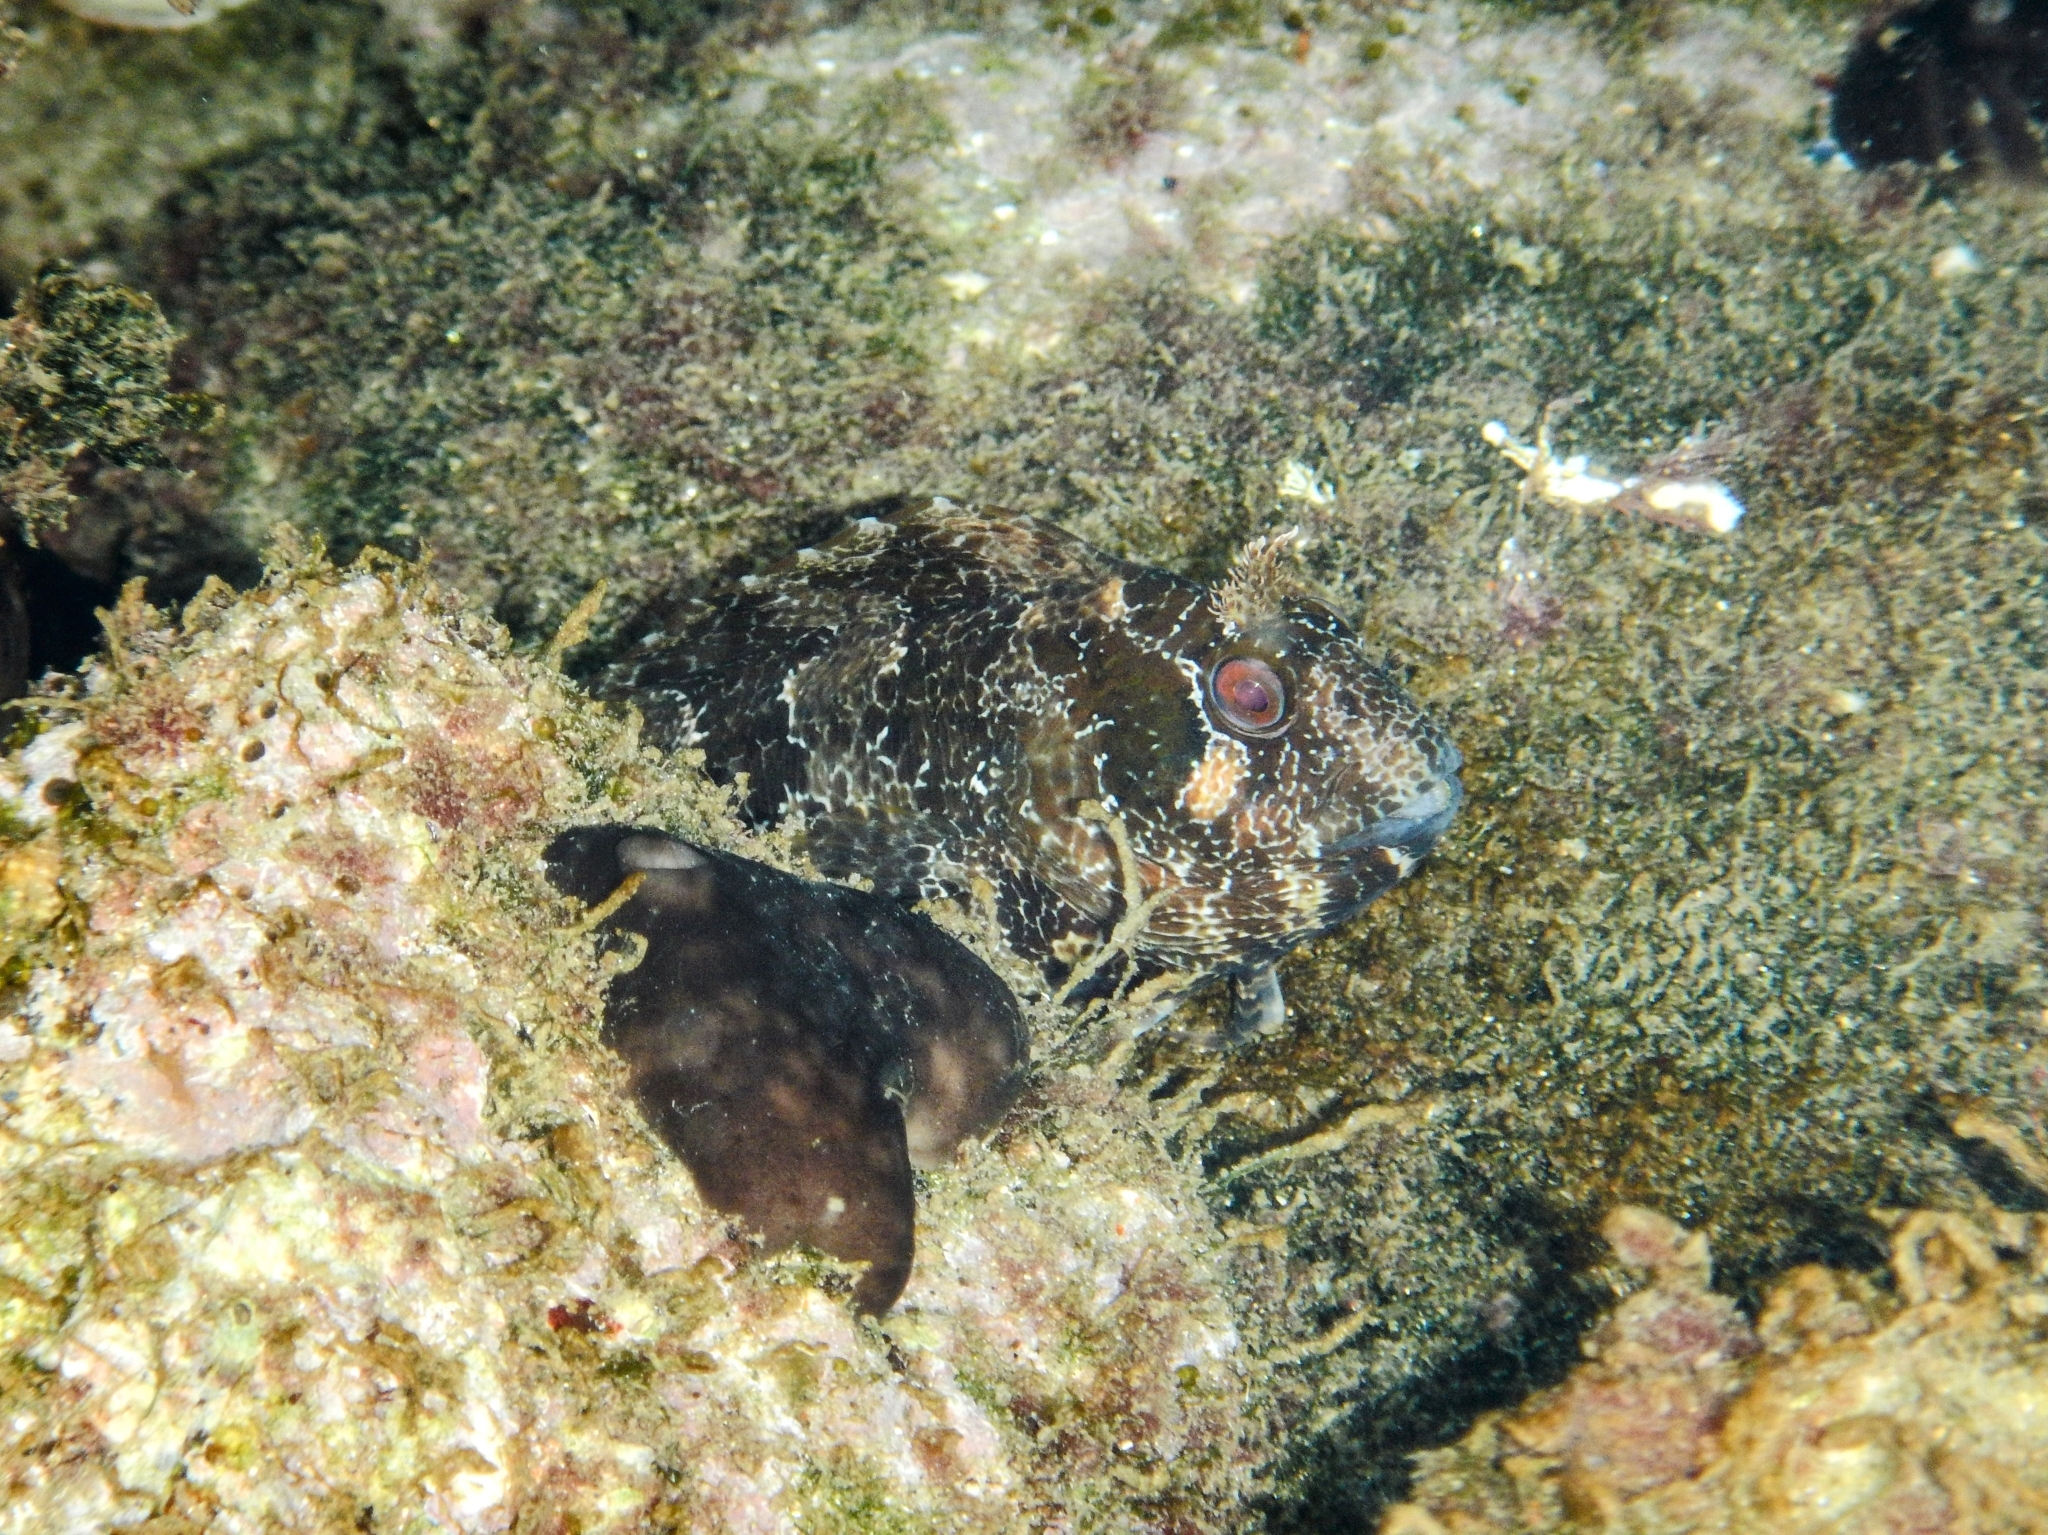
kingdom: Animalia
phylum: Chordata
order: Perciformes
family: Blenniidae
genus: Parablennius
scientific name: Parablennius gattorugine
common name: Tompot blenny
